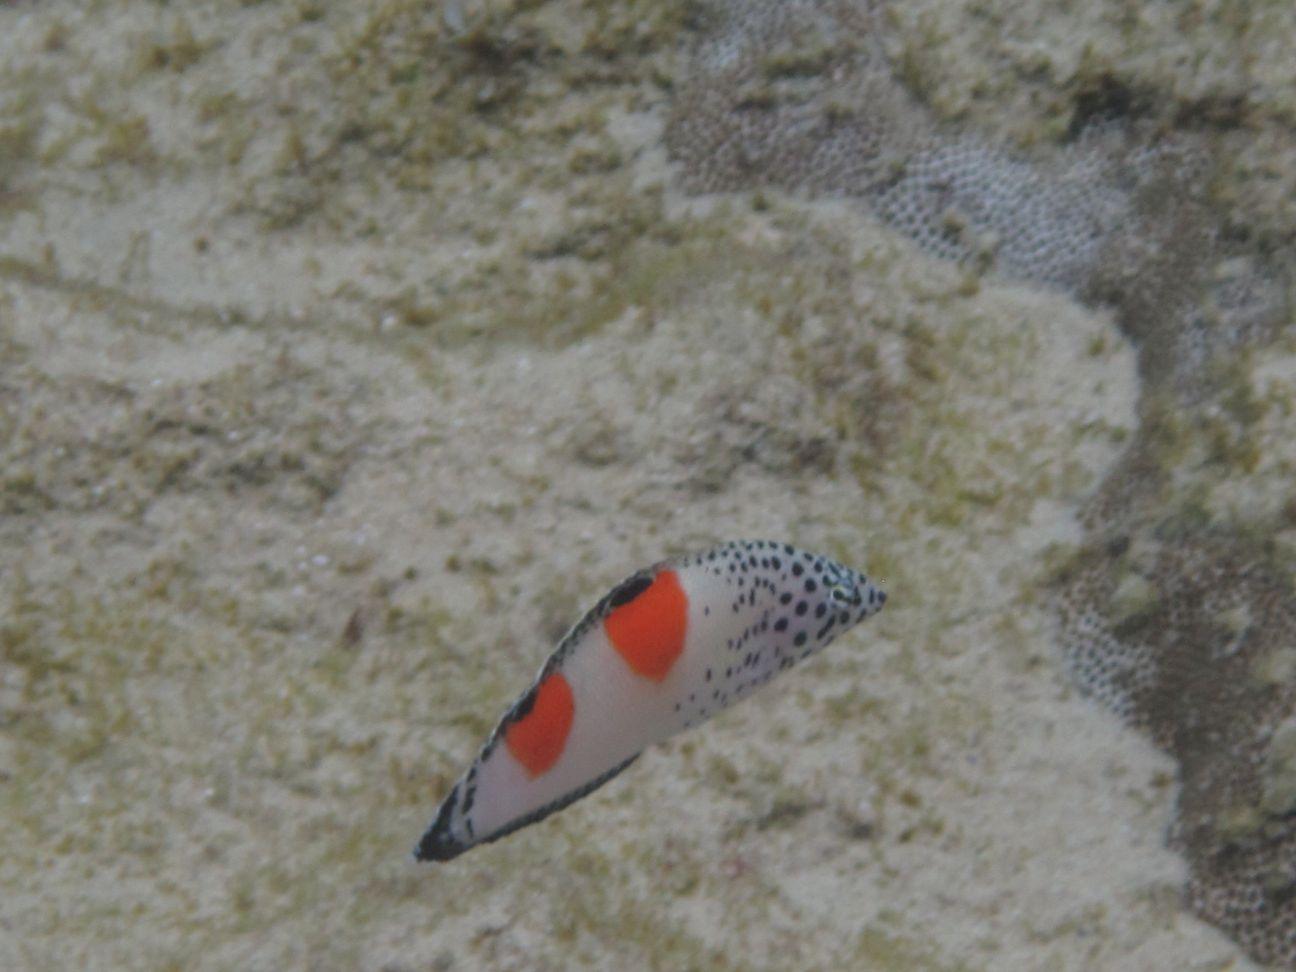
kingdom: Animalia
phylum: Chordata
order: Perciformes
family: Labridae
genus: Coris
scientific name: Coris aygula
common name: Clown coris
